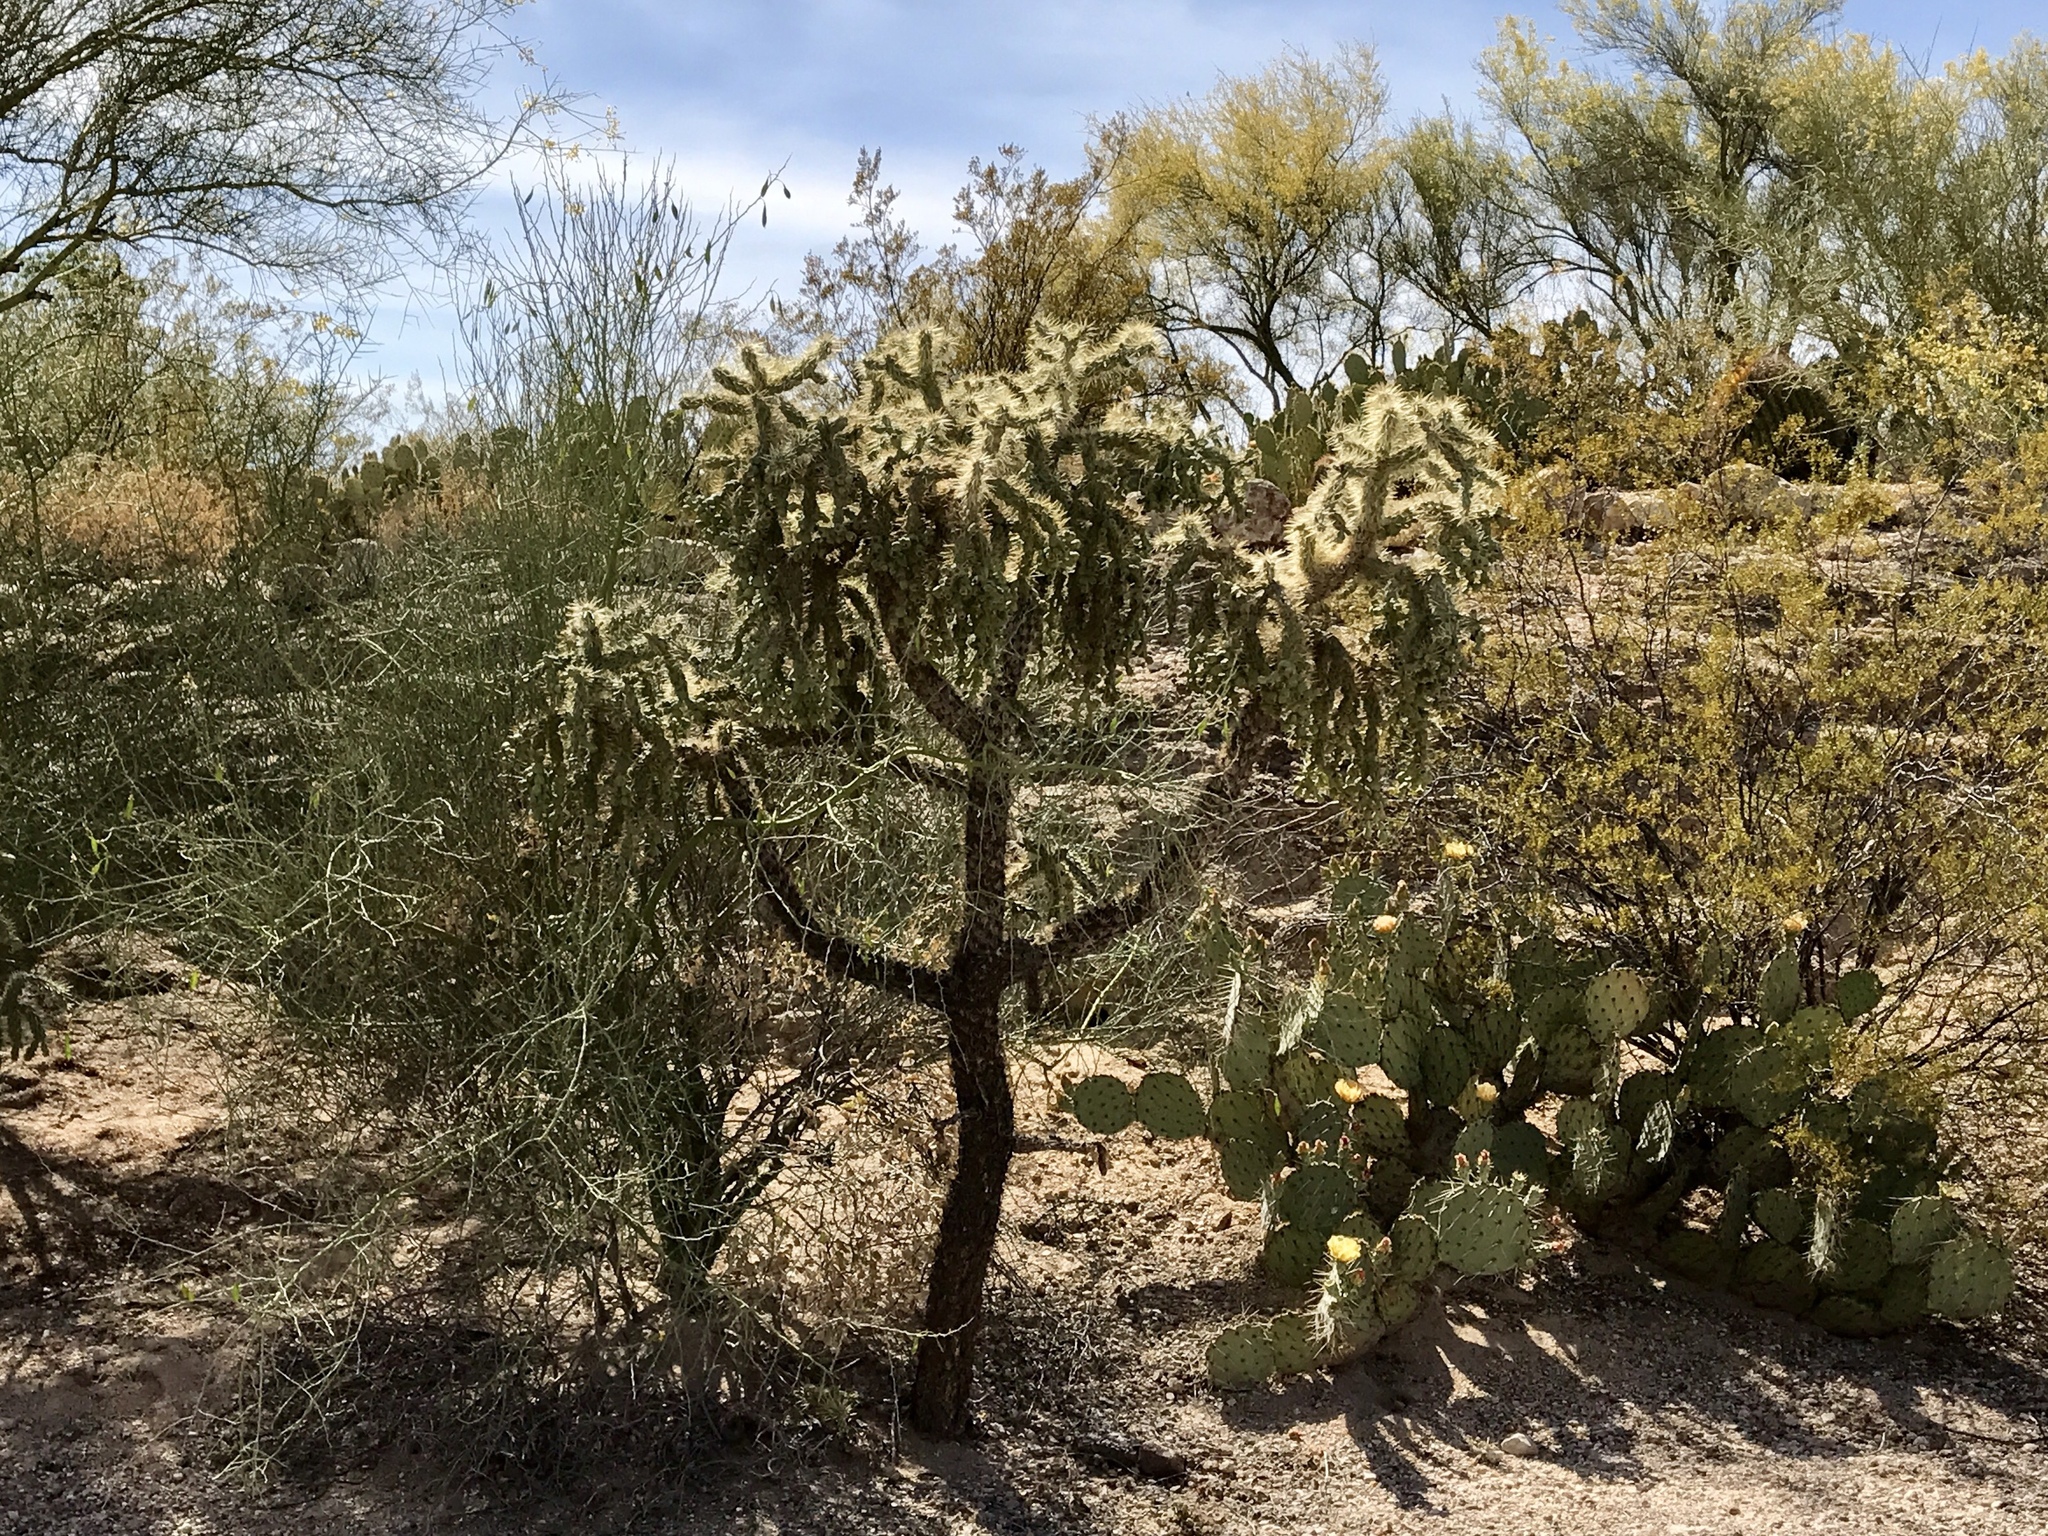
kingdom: Plantae
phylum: Tracheophyta
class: Magnoliopsida
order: Caryophyllales
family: Cactaceae
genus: Cylindropuntia
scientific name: Cylindropuntia fulgida
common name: Jumping cholla
